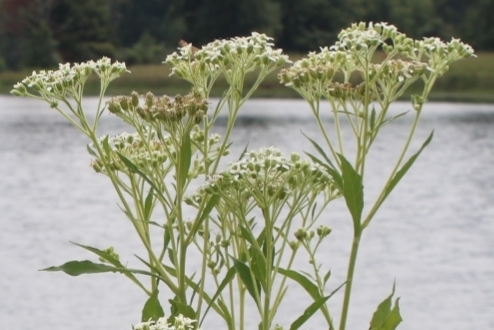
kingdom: Plantae
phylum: Tracheophyta
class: Magnoliopsida
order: Asterales
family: Asteraceae
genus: Verbesina
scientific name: Verbesina virginica
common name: Frostweed
